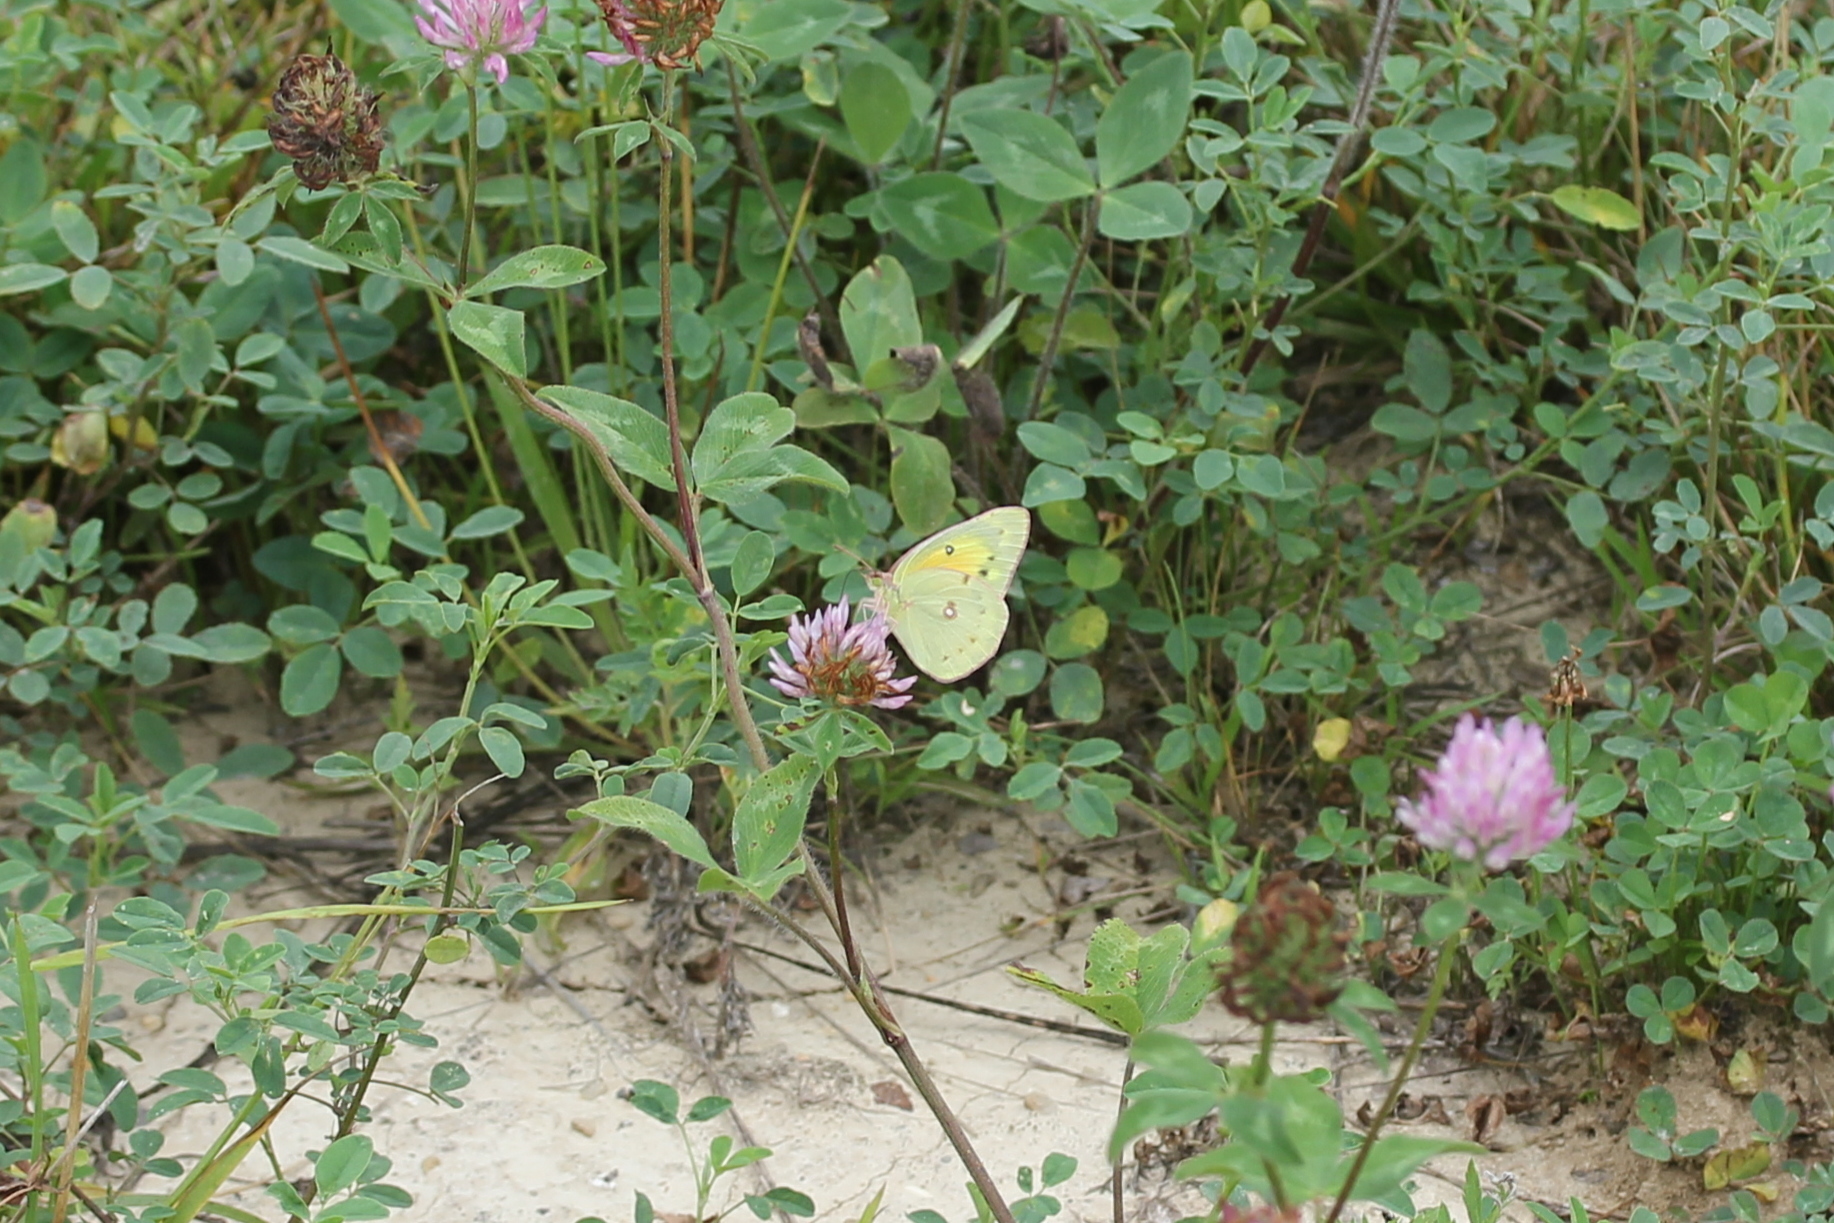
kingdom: Animalia
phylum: Arthropoda
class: Insecta
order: Lepidoptera
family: Pieridae
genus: Colias
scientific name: Colias eurytheme
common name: Alfalfa butterfly
